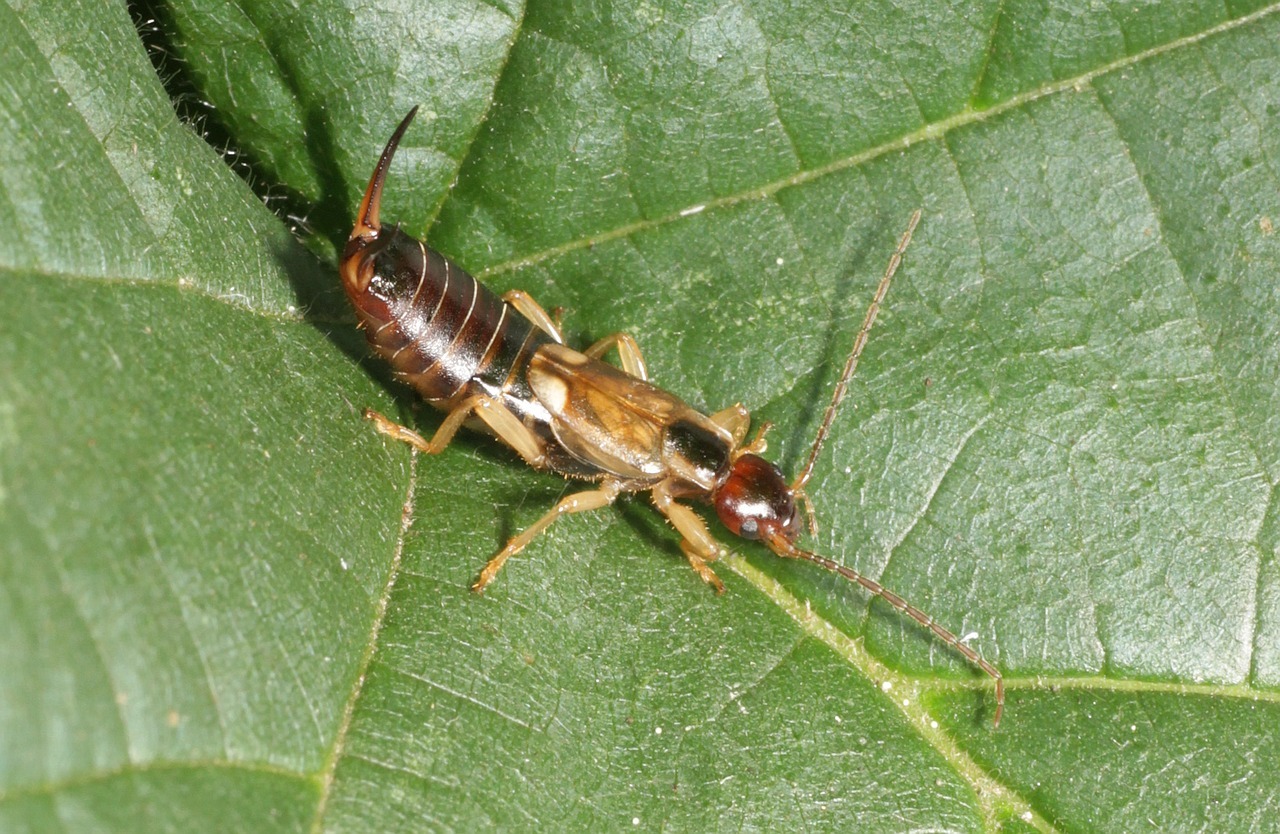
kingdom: Animalia
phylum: Arthropoda
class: Insecta
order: Dermaptera
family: Forficulidae
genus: Forficula
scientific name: Forficula
